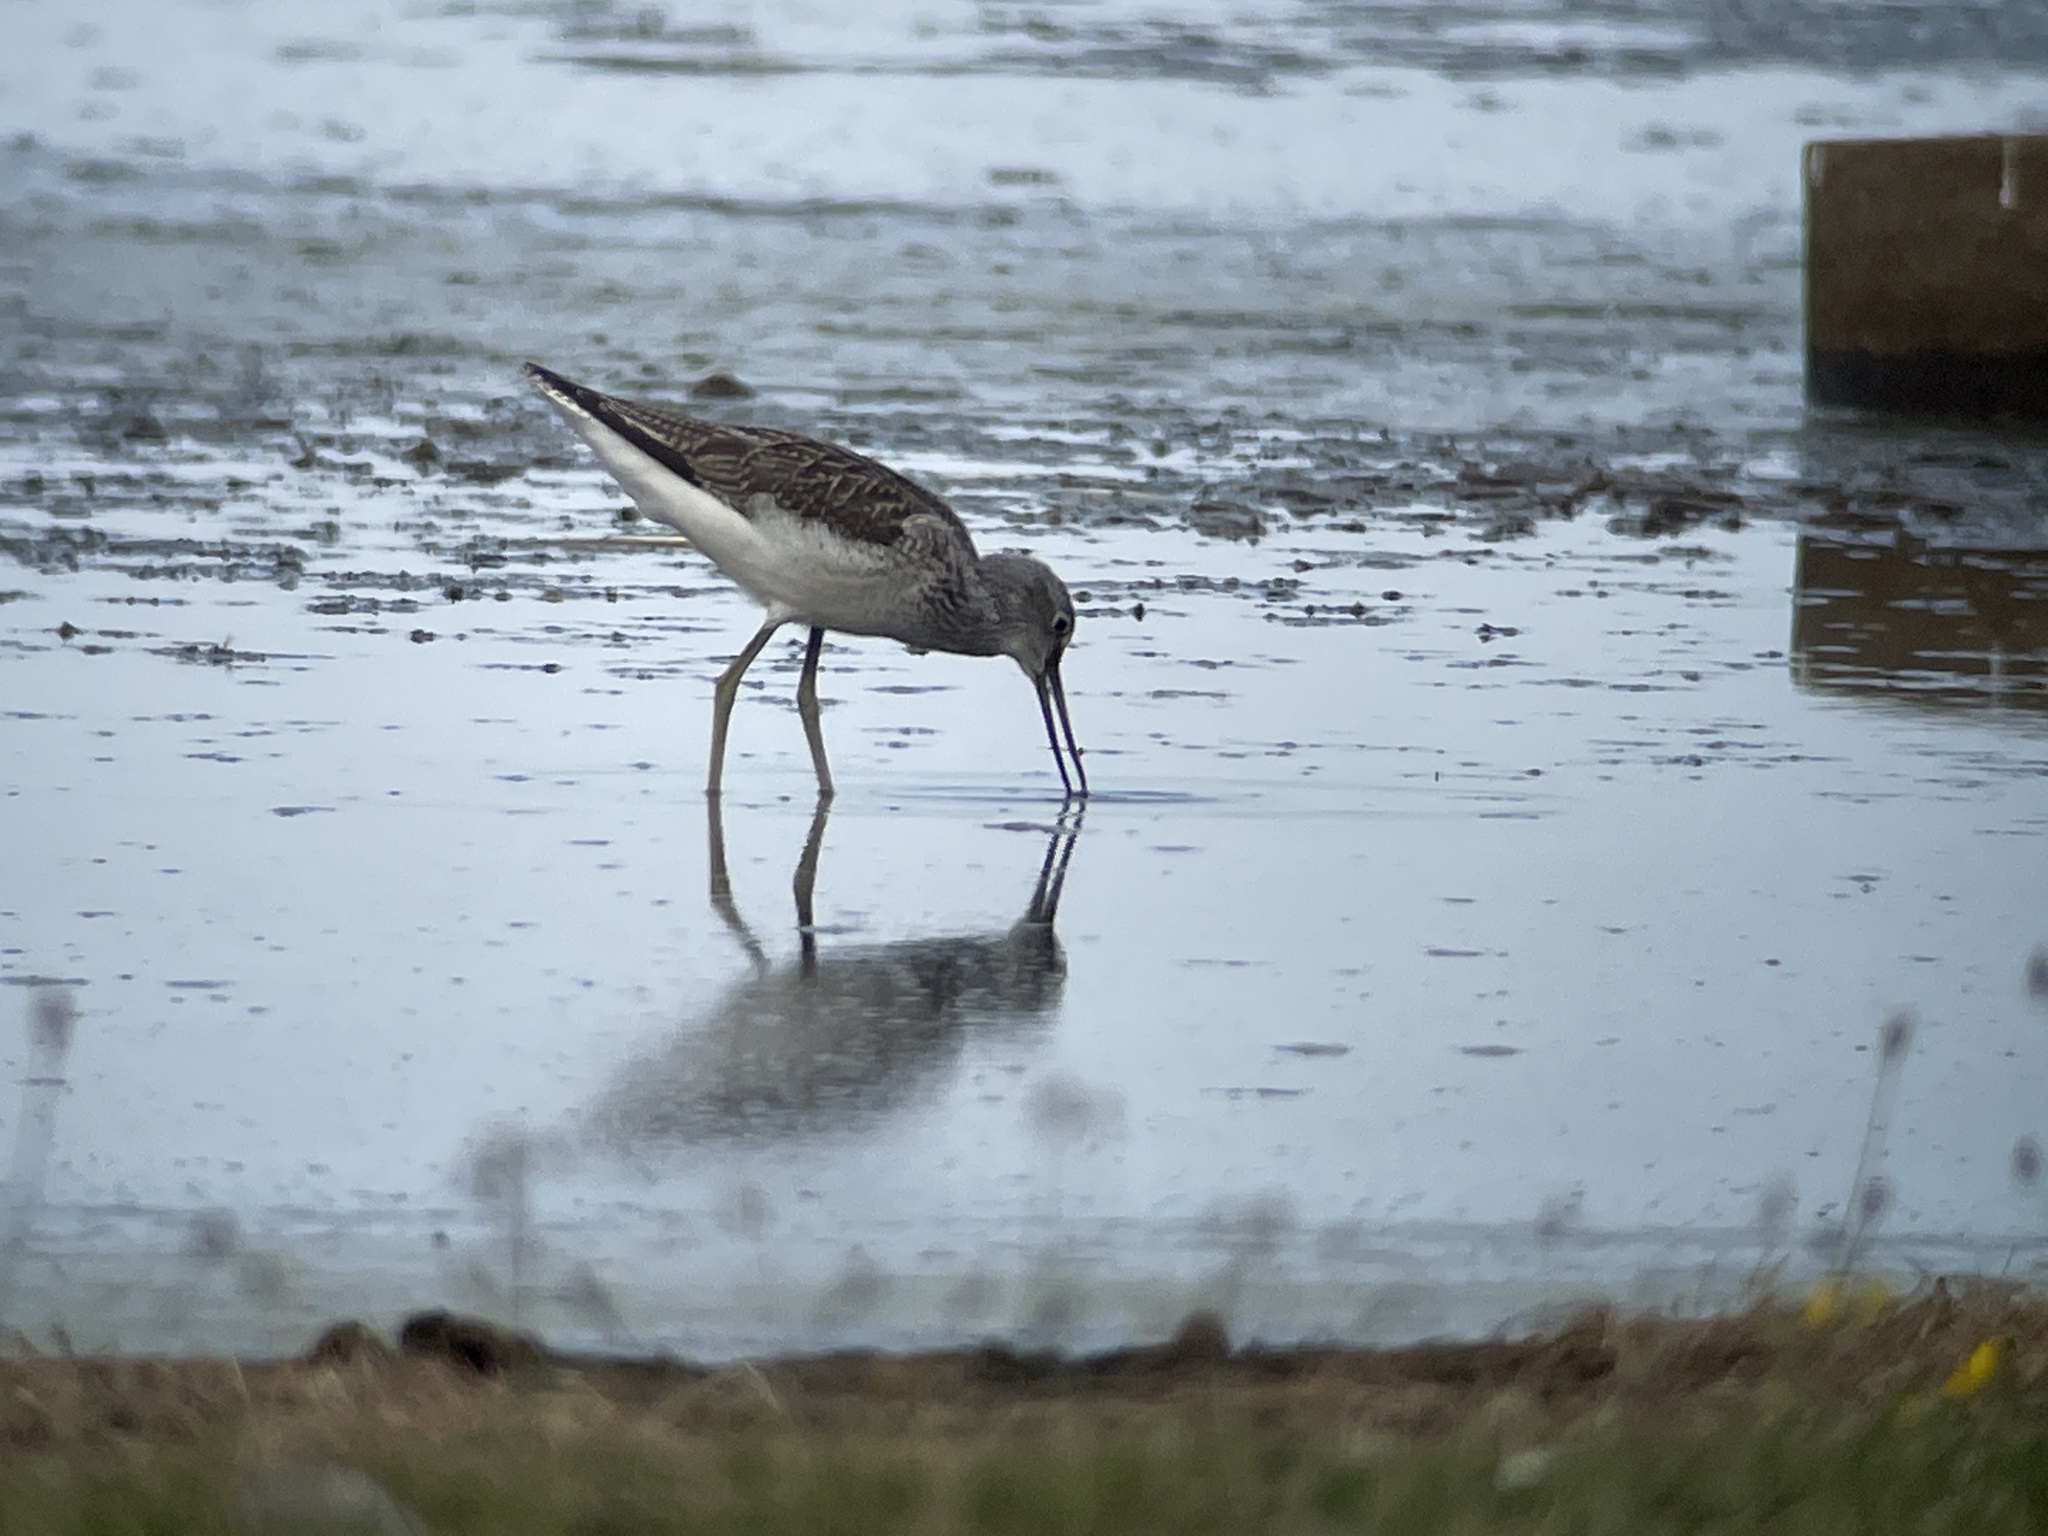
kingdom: Animalia
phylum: Chordata
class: Aves
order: Charadriiformes
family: Scolopacidae
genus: Tringa
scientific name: Tringa nebularia
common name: Common greenshank
